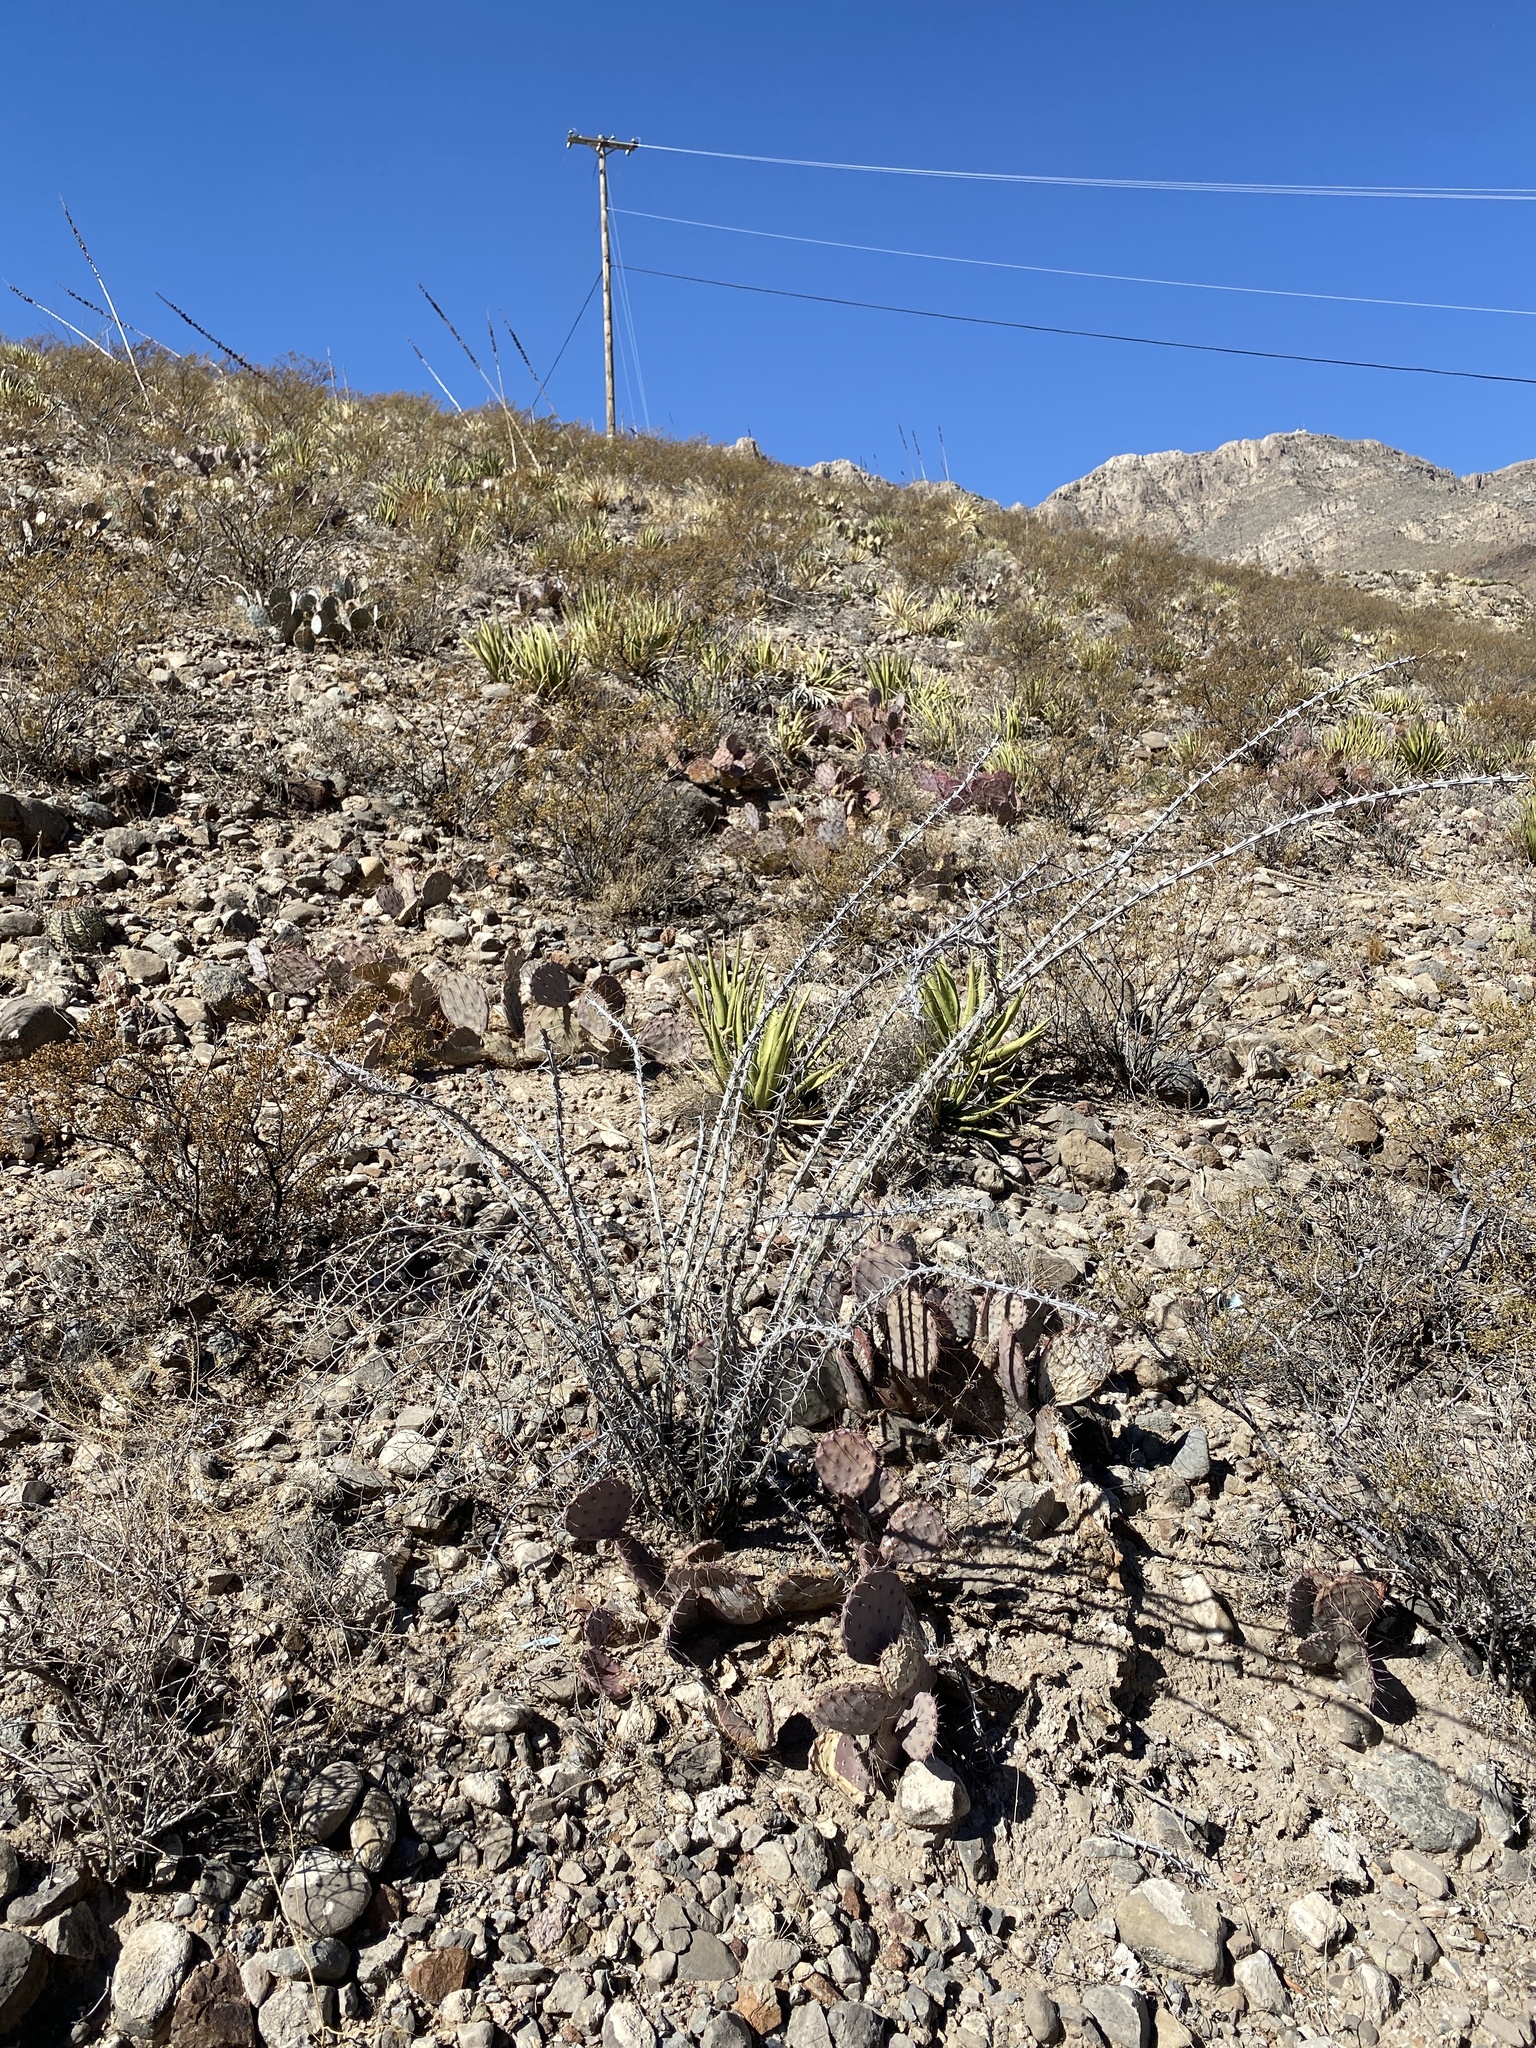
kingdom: Plantae
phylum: Tracheophyta
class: Magnoliopsida
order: Ericales
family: Fouquieriaceae
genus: Fouquieria
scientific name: Fouquieria splendens
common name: Vine-cactus
